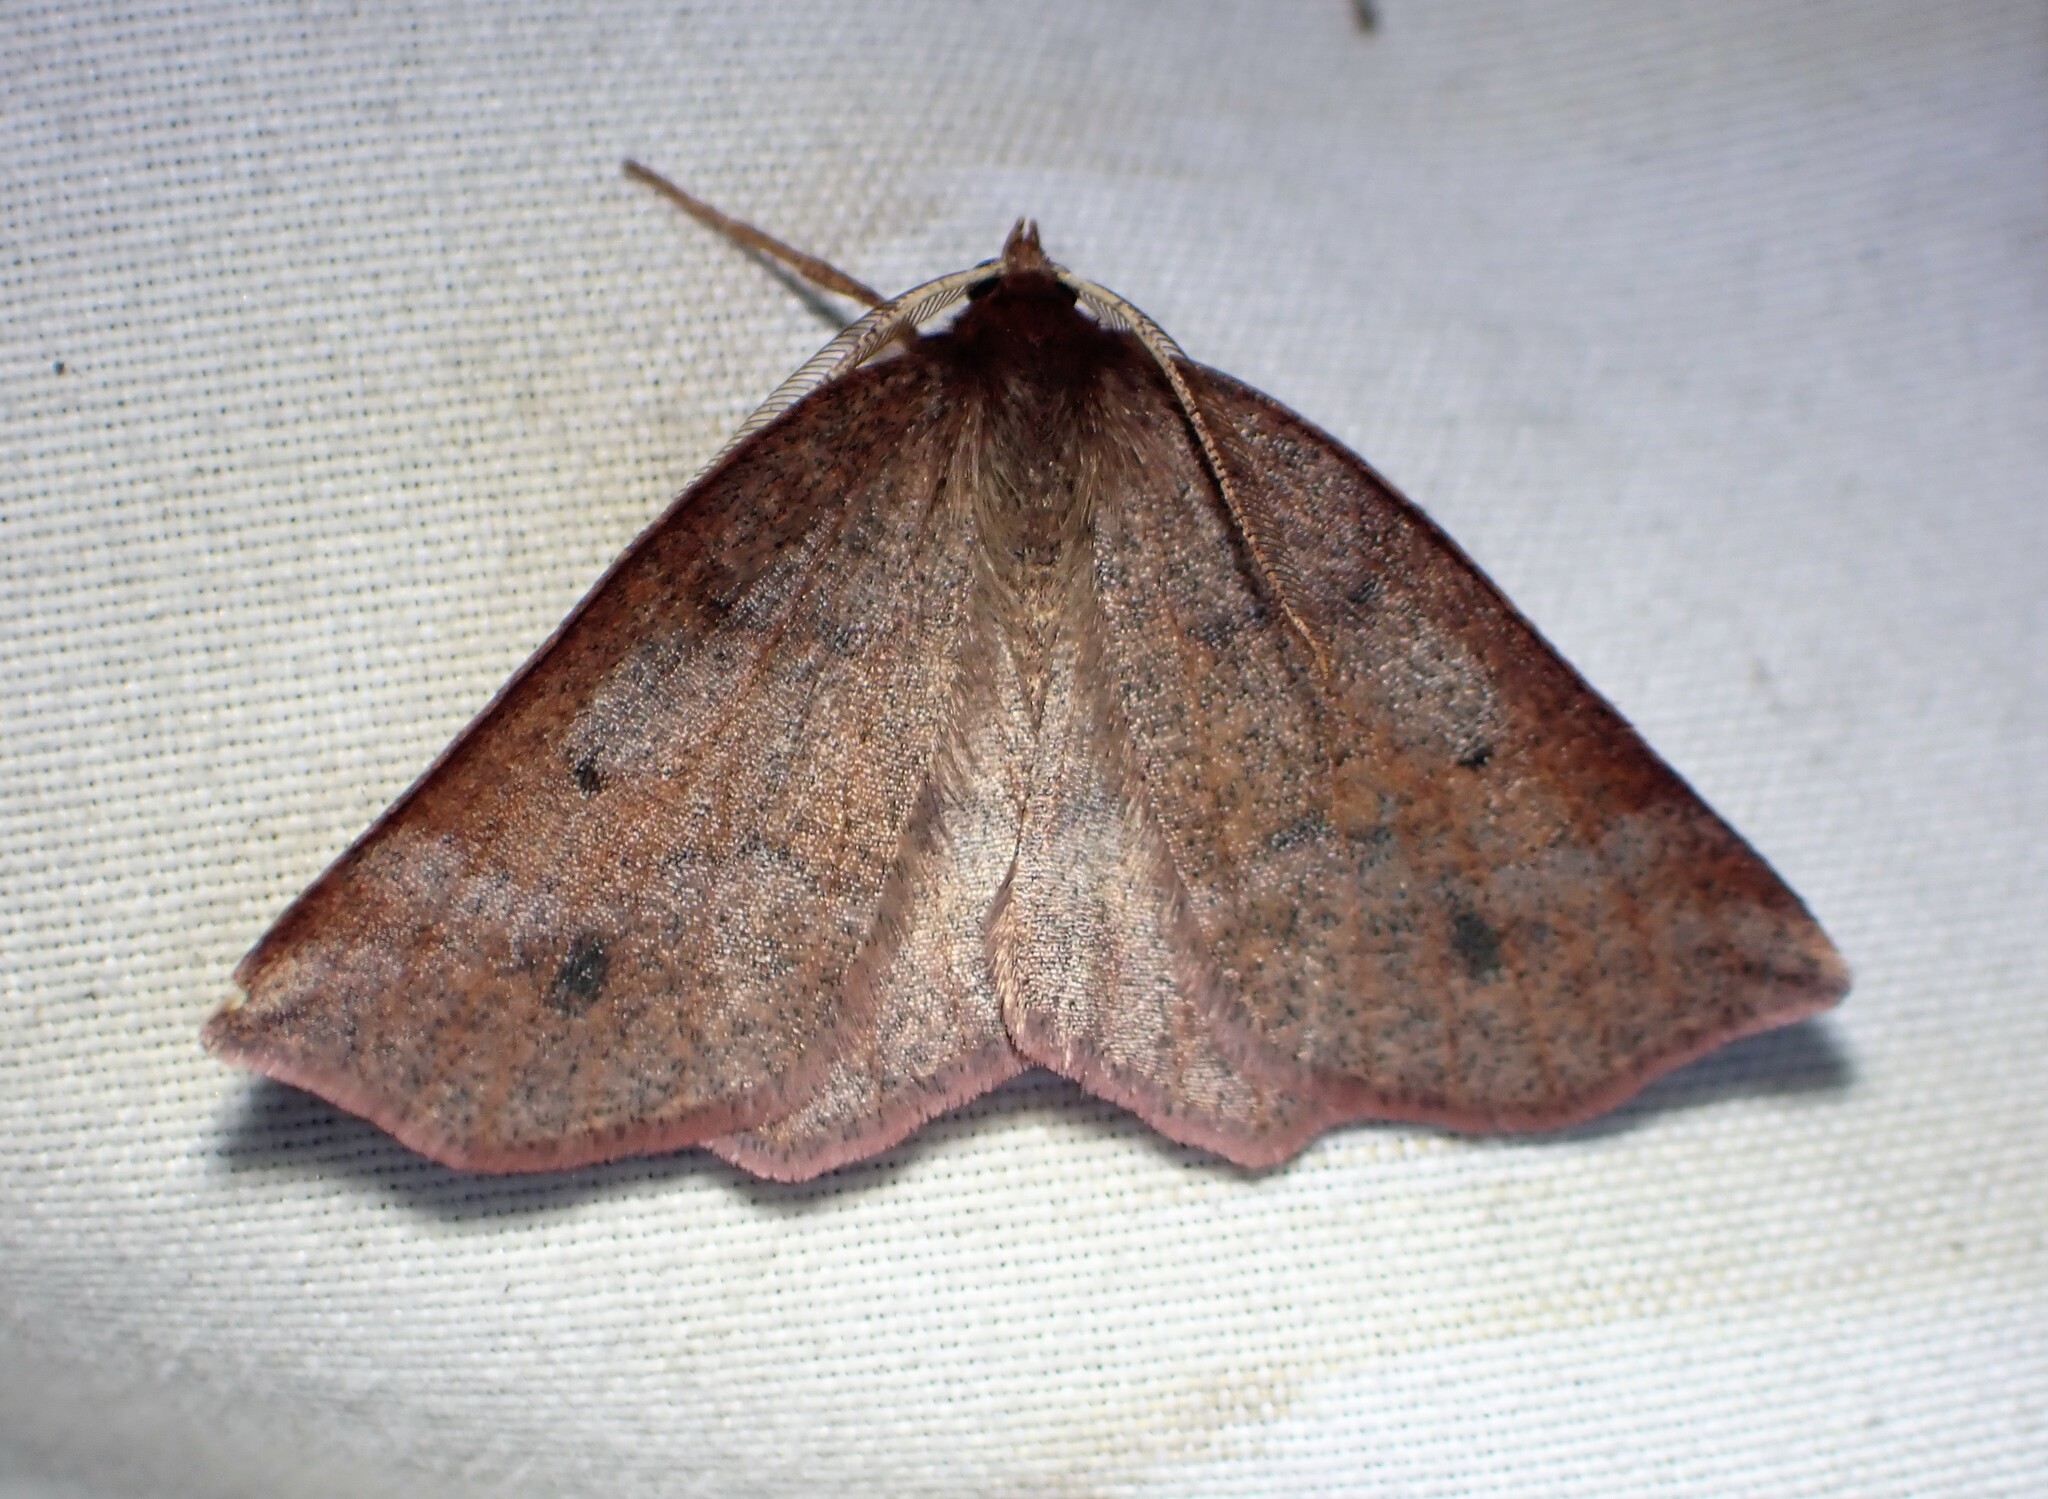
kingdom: Animalia
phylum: Arthropoda
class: Insecta
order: Lepidoptera
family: Geometridae
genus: Metarranthis
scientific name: Metarranthis duaria
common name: Ruddy metarranthis moth
